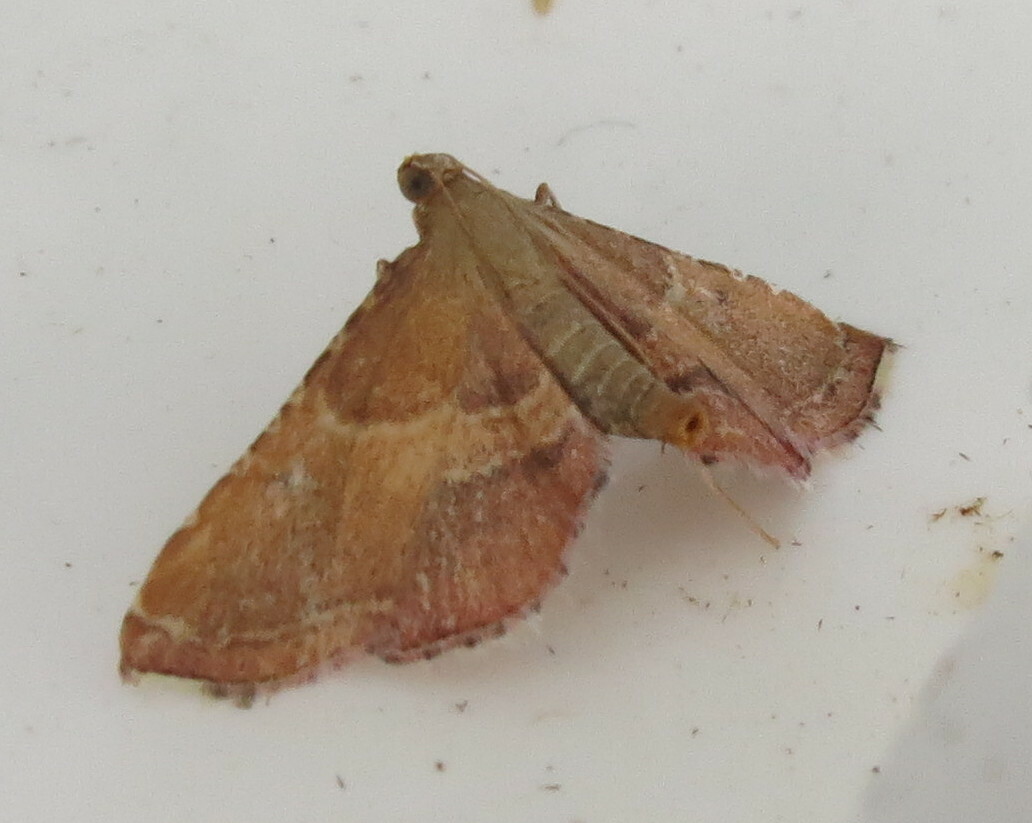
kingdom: Animalia
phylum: Arthropoda
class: Insecta
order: Lepidoptera
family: Pyralidae
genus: Endotricha
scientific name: Endotricha flammealis
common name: Rosy tabby
